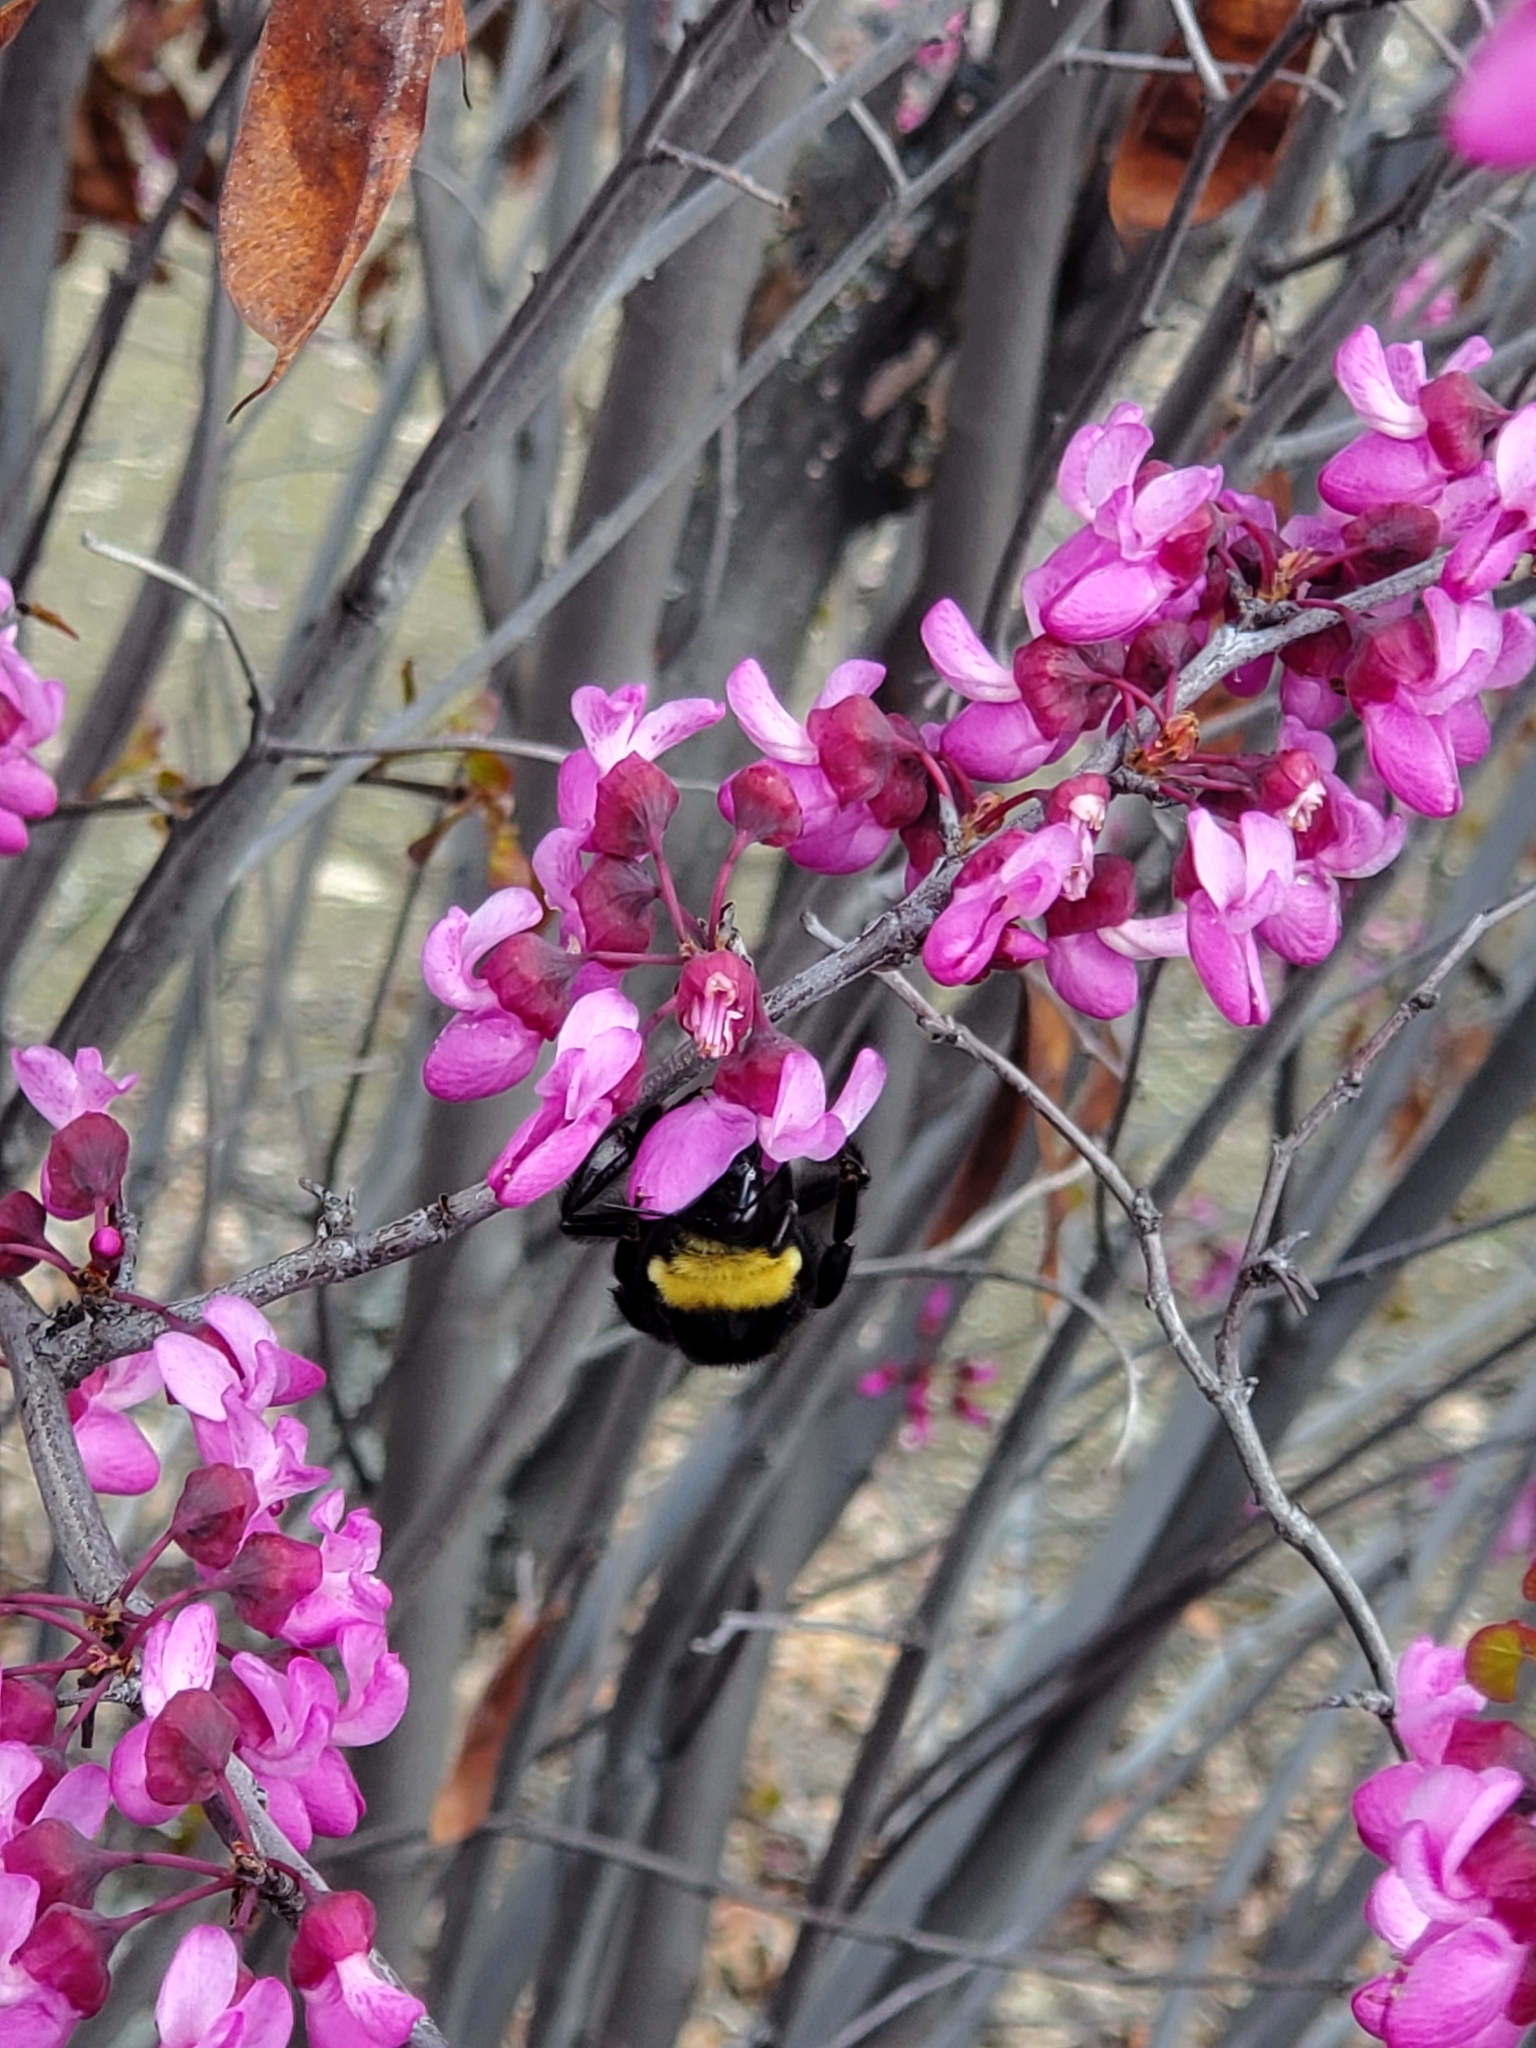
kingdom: Animalia
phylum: Arthropoda
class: Insecta
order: Hymenoptera
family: Apidae
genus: Bombus
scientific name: Bombus crotchii
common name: Crotch bumble bee
